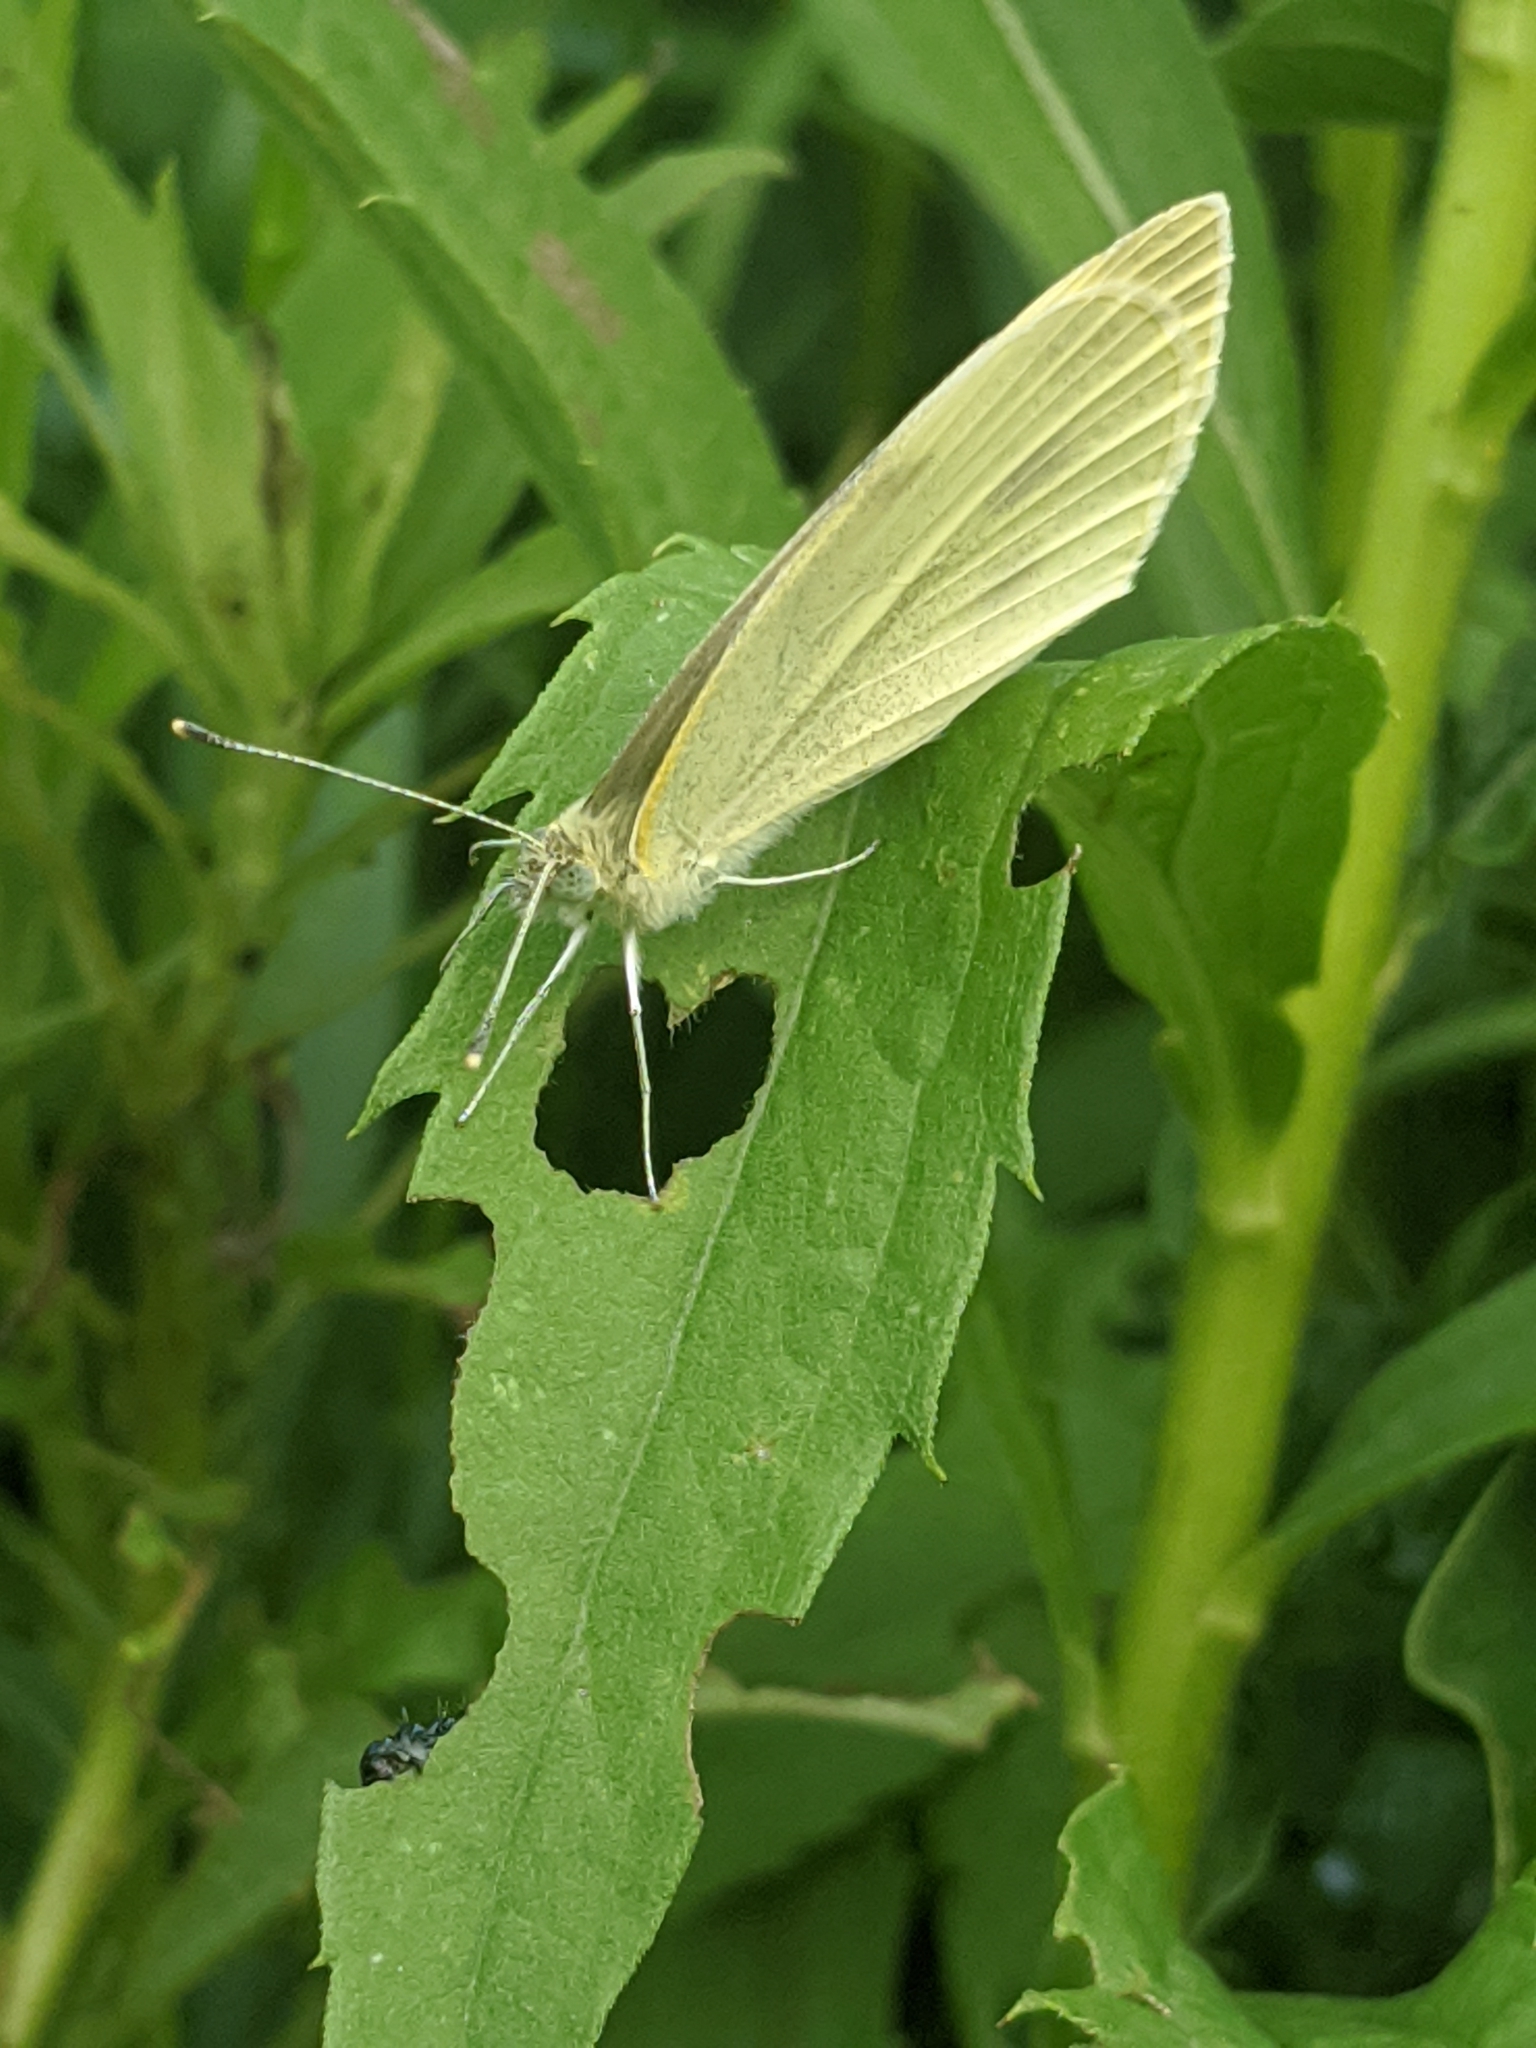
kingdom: Animalia
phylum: Arthropoda
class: Insecta
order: Lepidoptera
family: Pieridae
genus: Pieris
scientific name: Pieris rapae
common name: Small white
